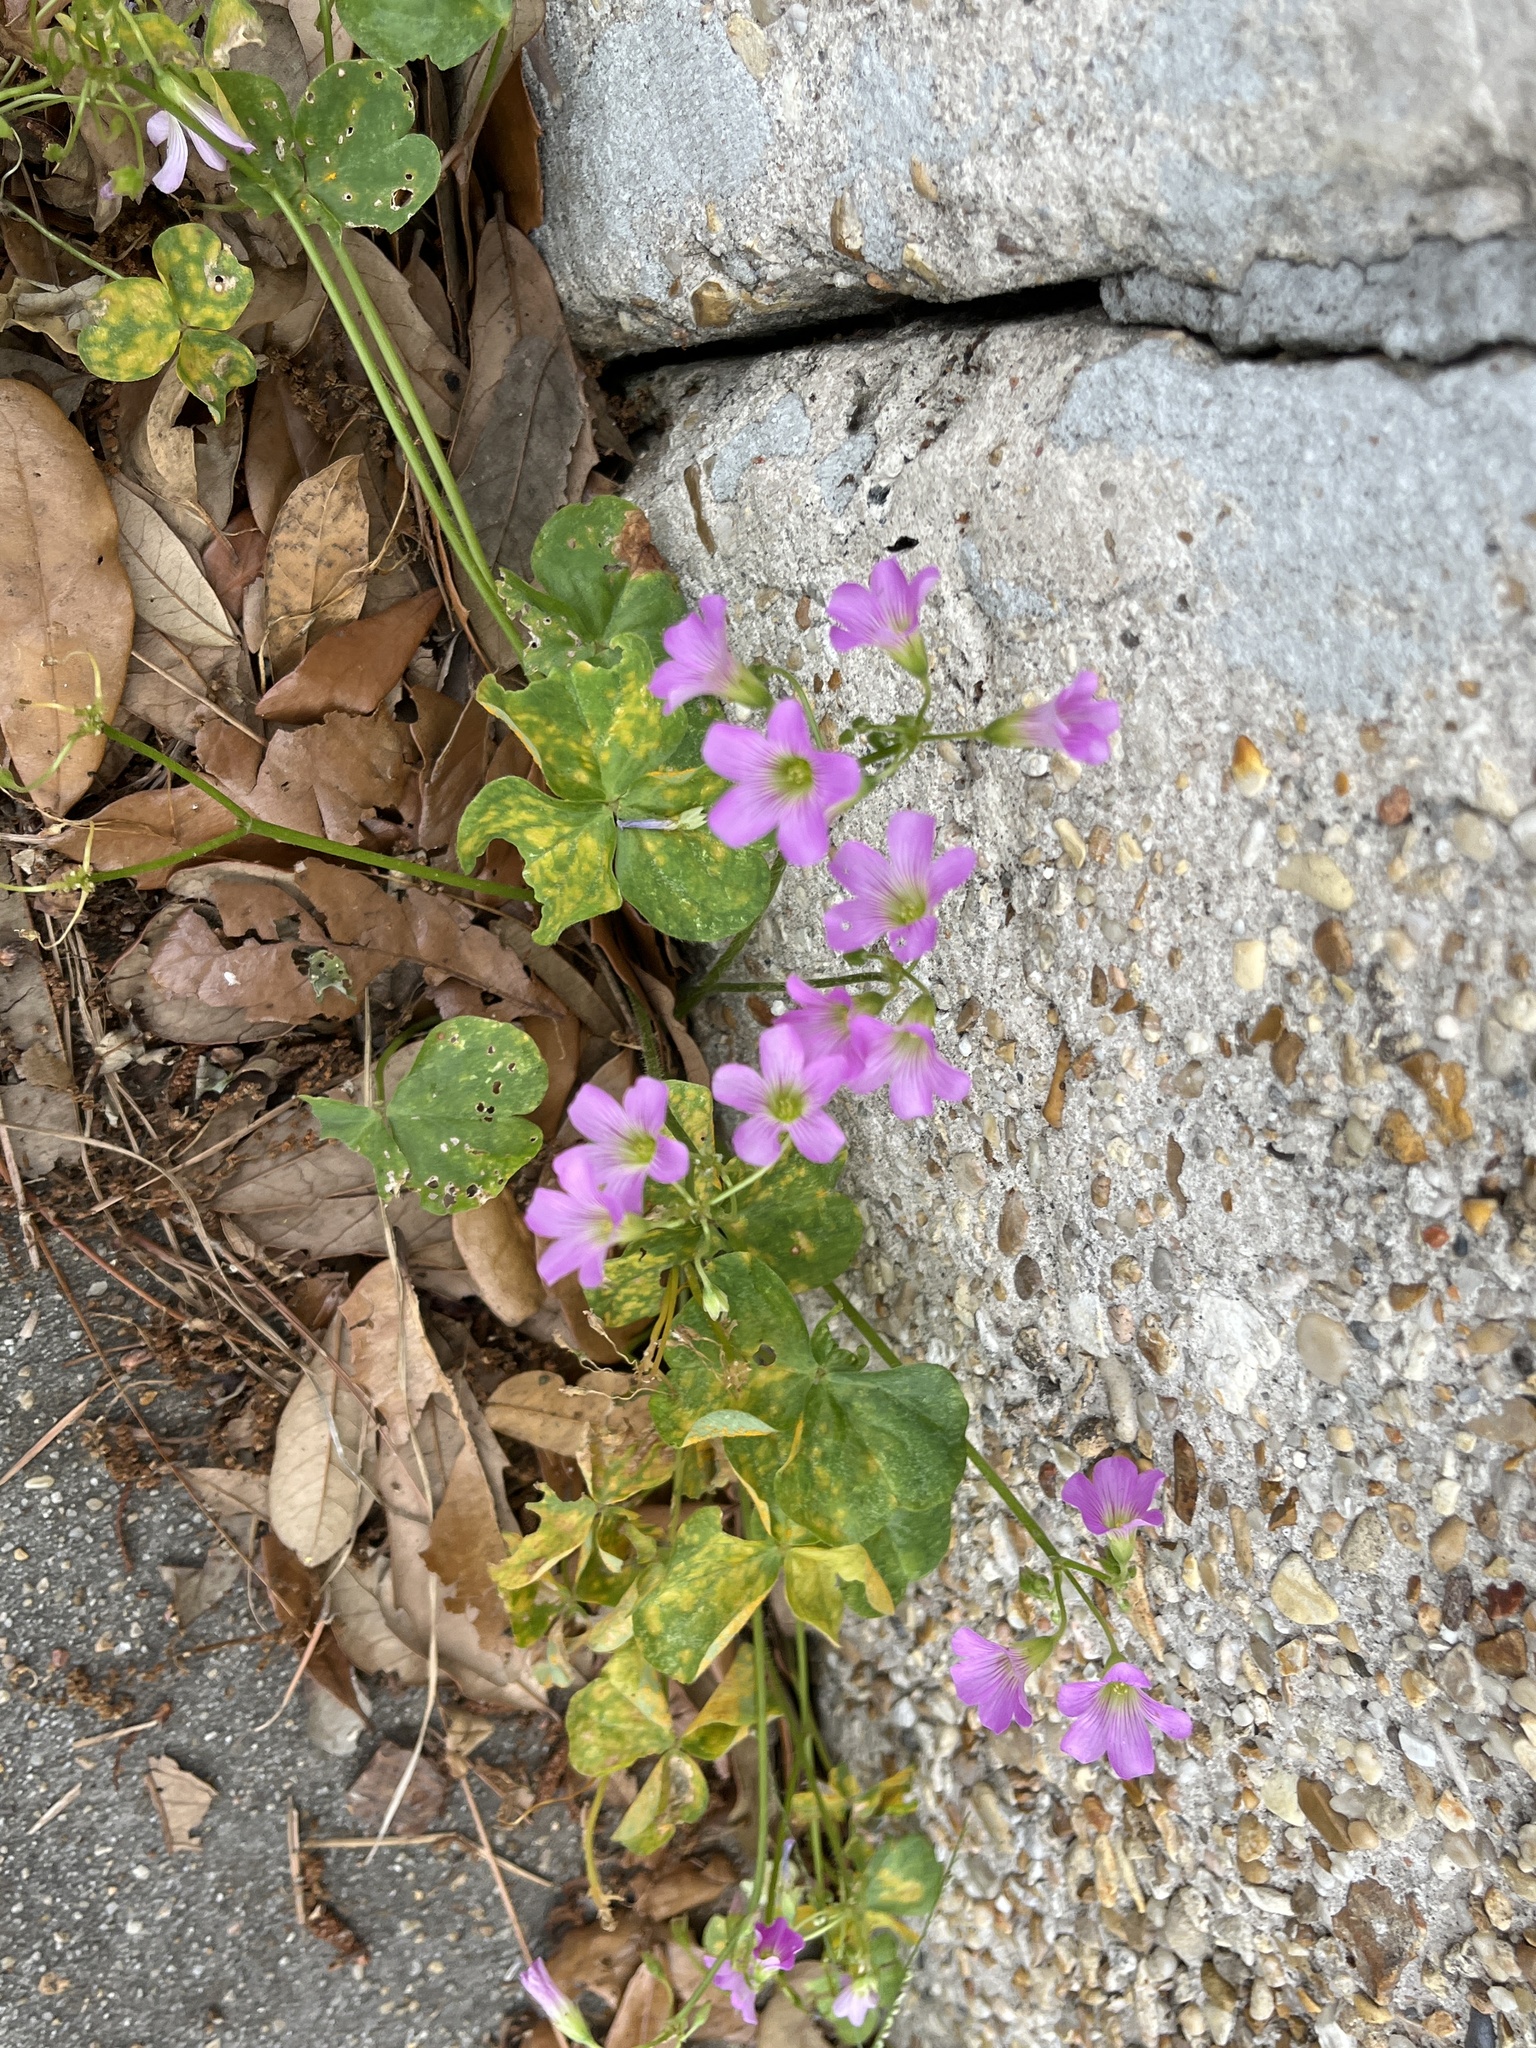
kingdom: Plantae
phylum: Tracheophyta
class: Magnoliopsida
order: Oxalidales
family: Oxalidaceae
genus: Oxalis
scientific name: Oxalis debilis
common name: Large-flowered pink-sorrel
